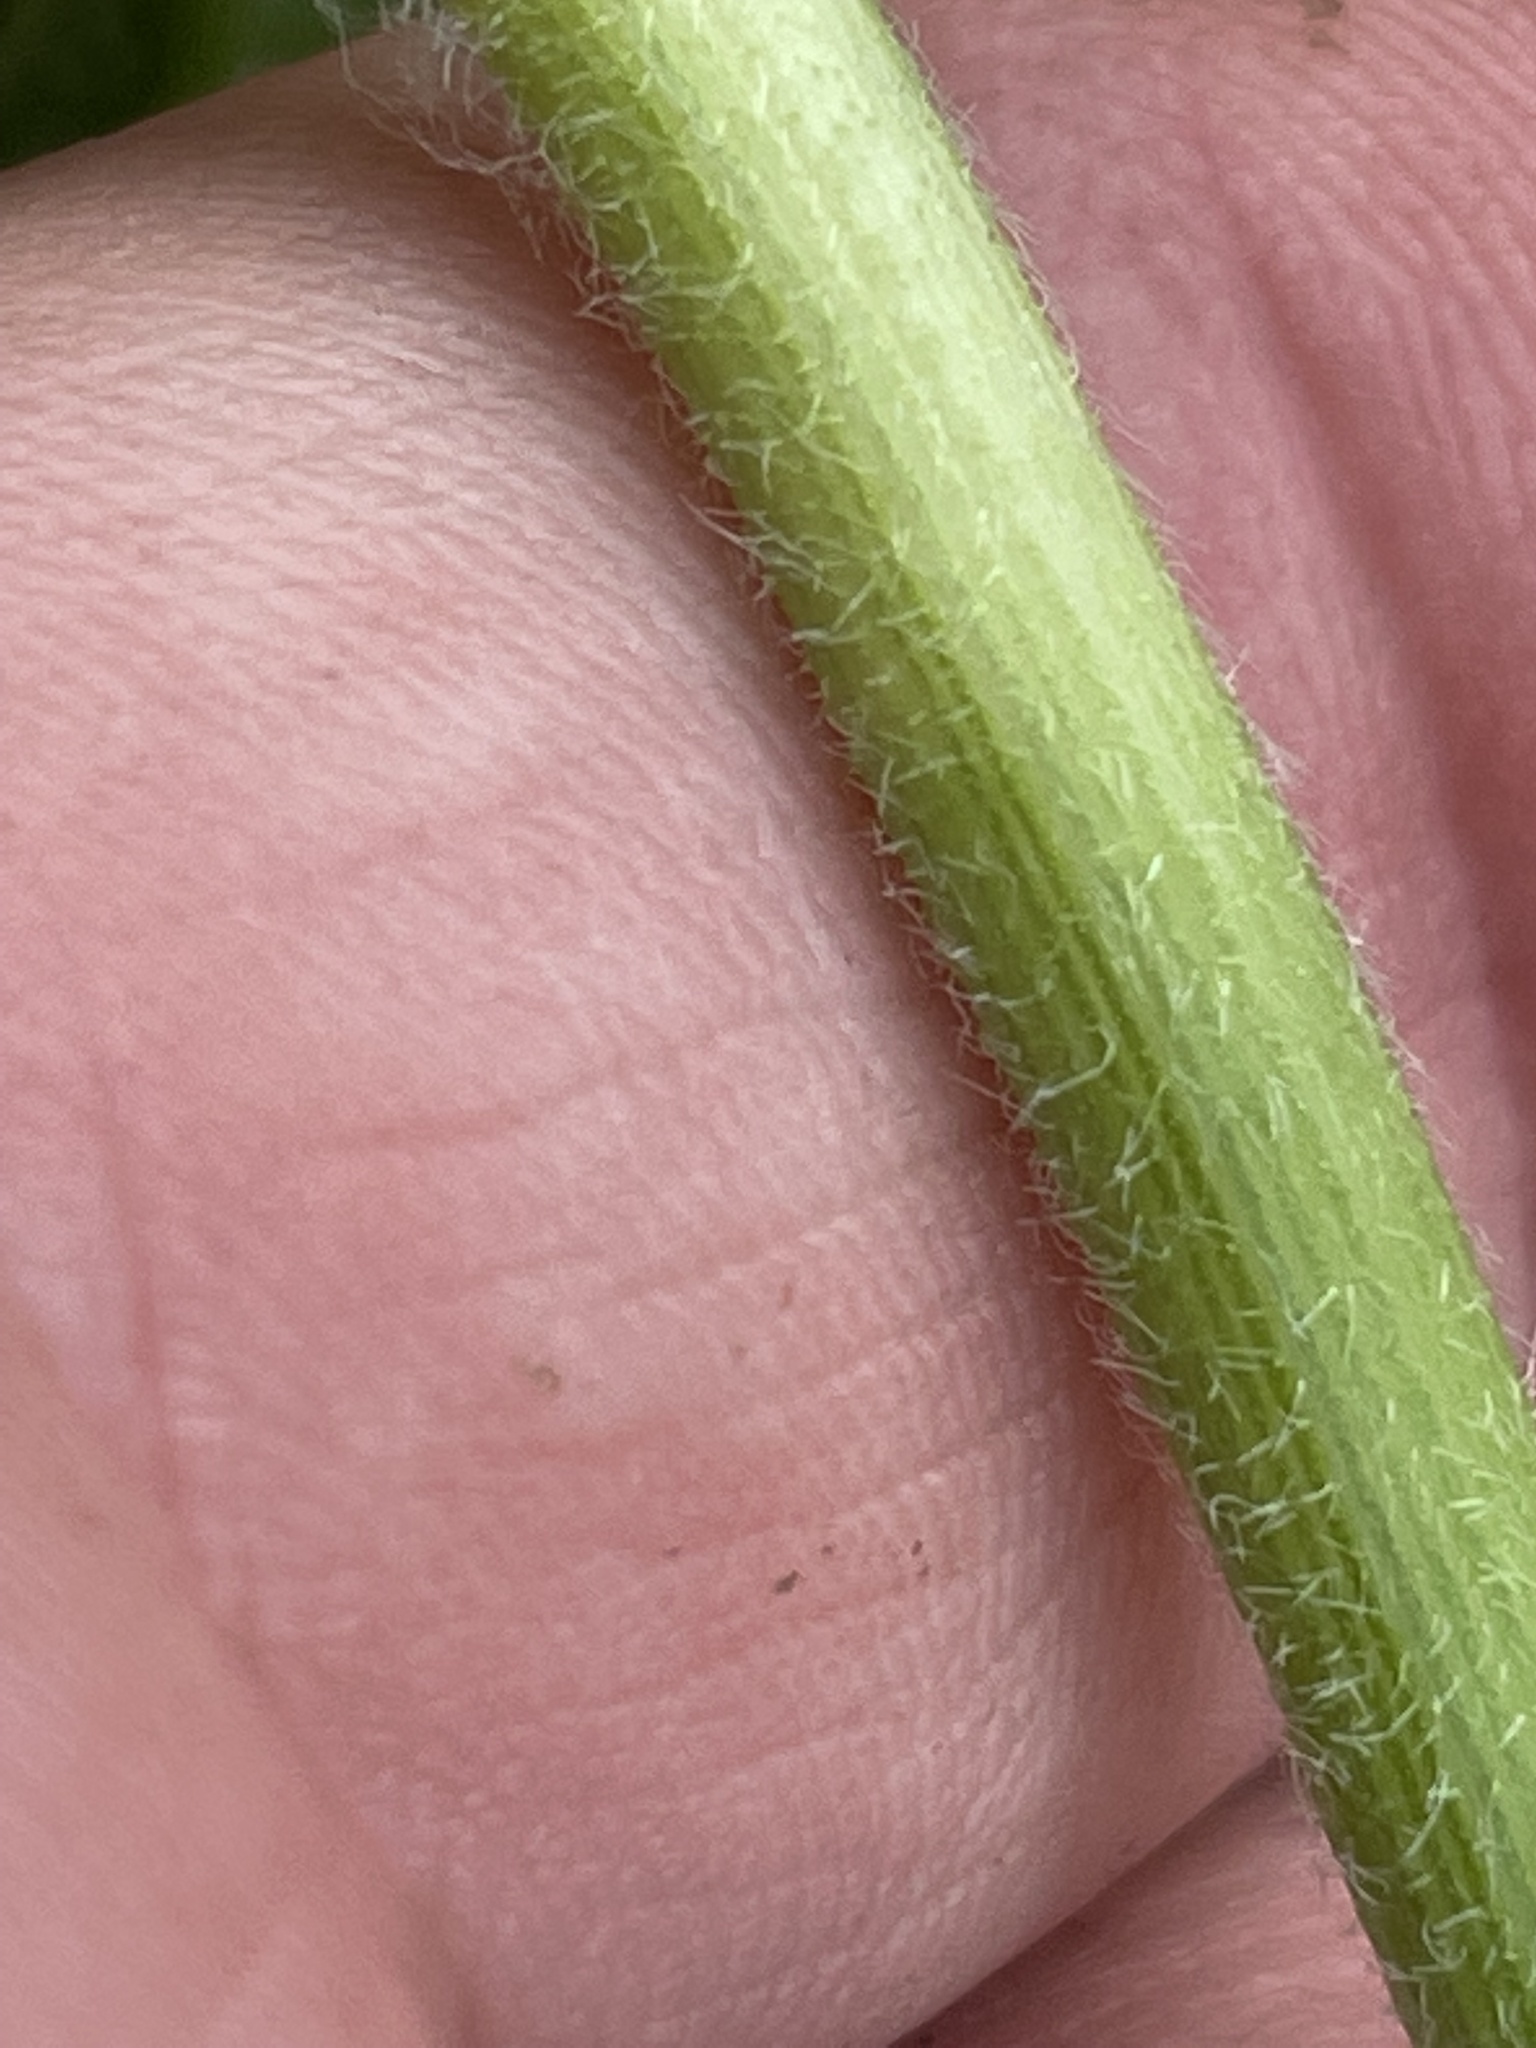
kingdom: Plantae
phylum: Tracheophyta
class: Liliopsida
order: Alismatales
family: Alismataceae
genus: Sagittaria
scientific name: Sagittaria latifolia
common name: Duck-potato
